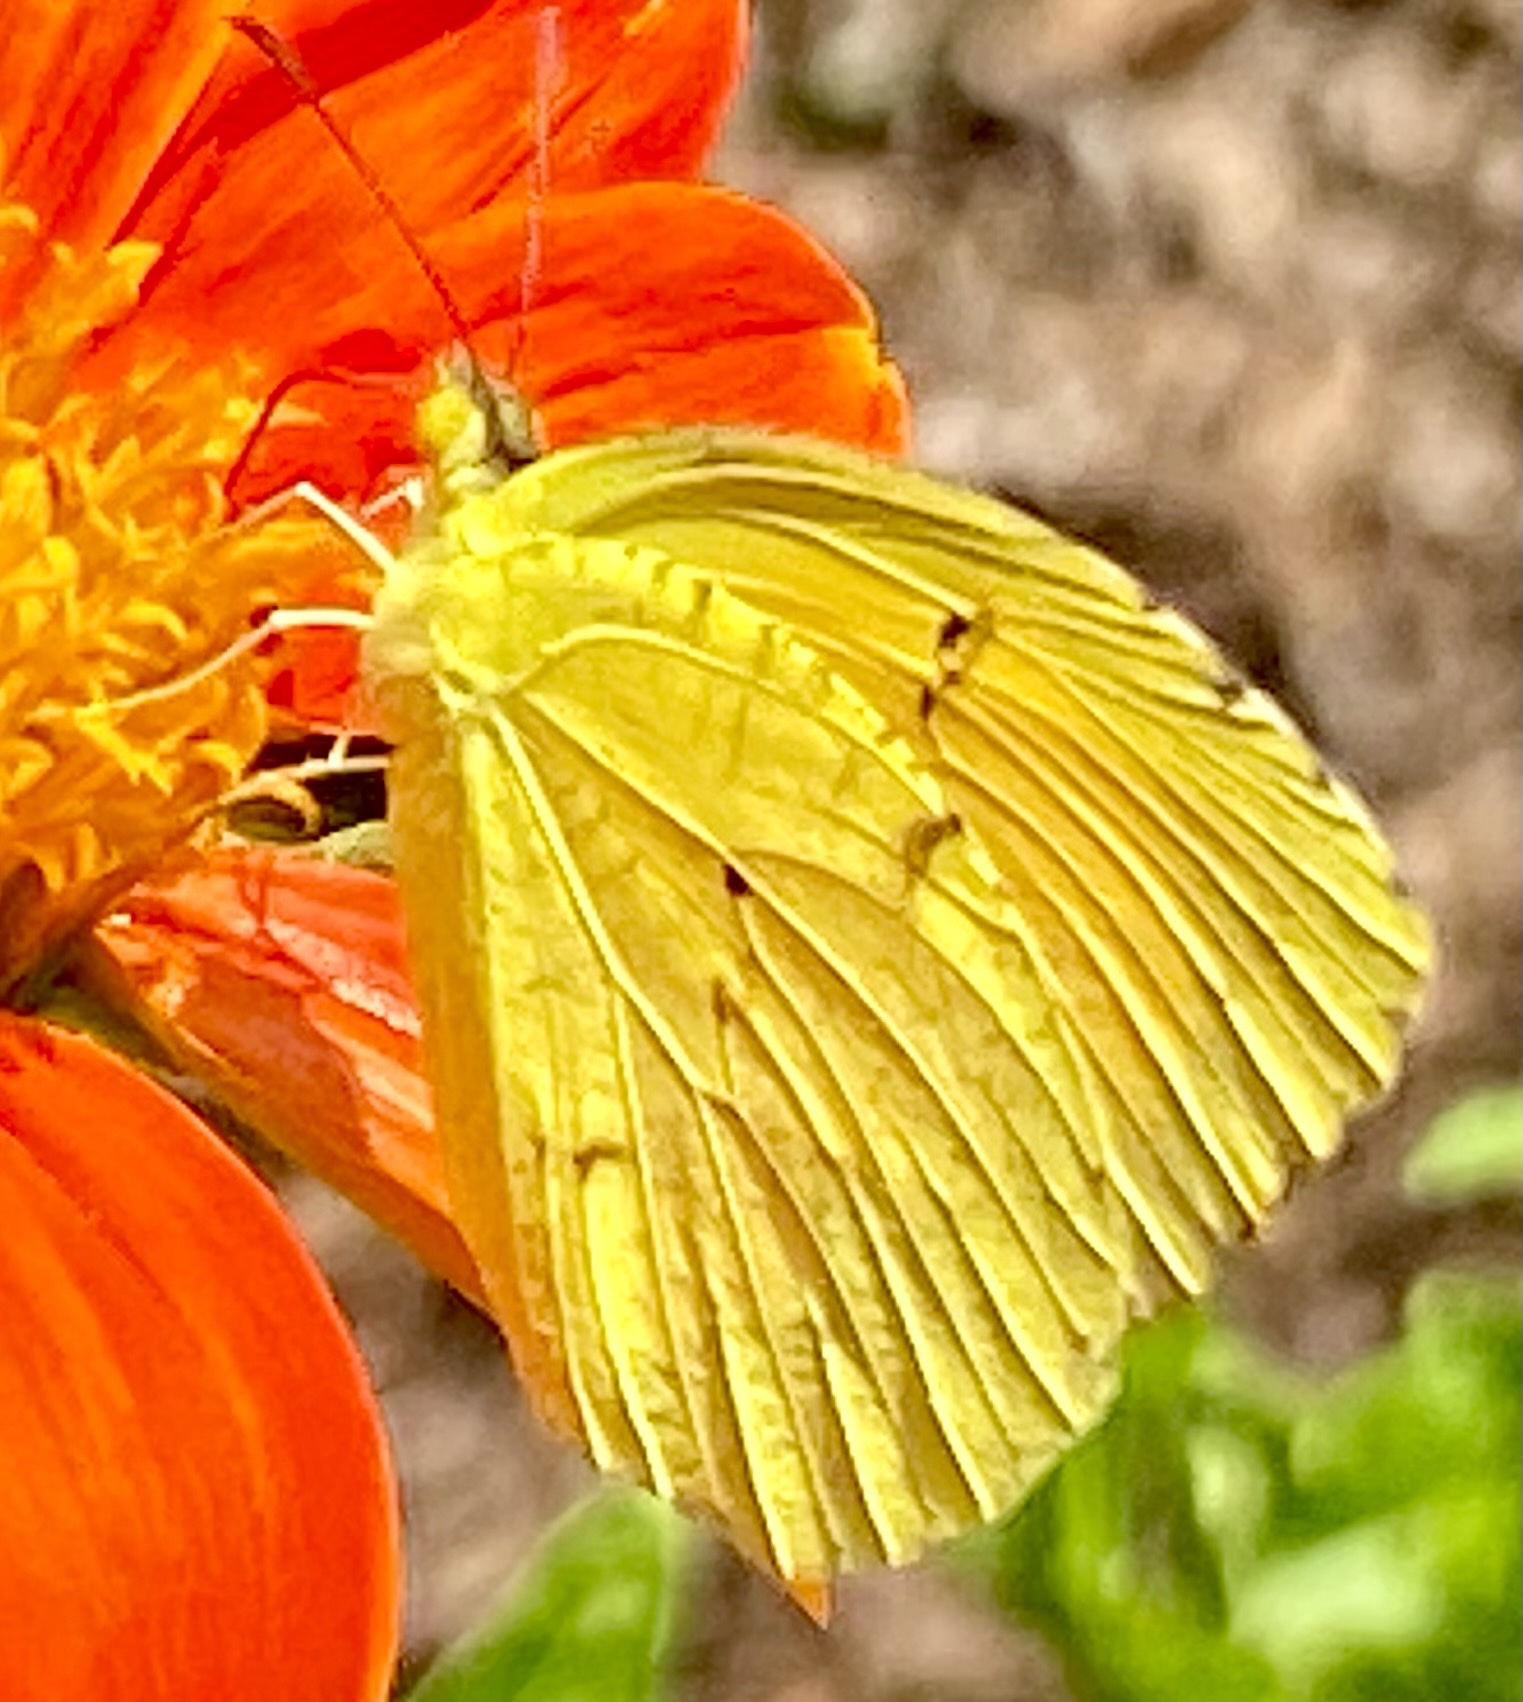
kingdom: Animalia
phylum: Arthropoda
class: Insecta
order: Lepidoptera
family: Pieridae
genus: Abaeis
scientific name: Abaeis nicippe
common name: Sleepy orange
